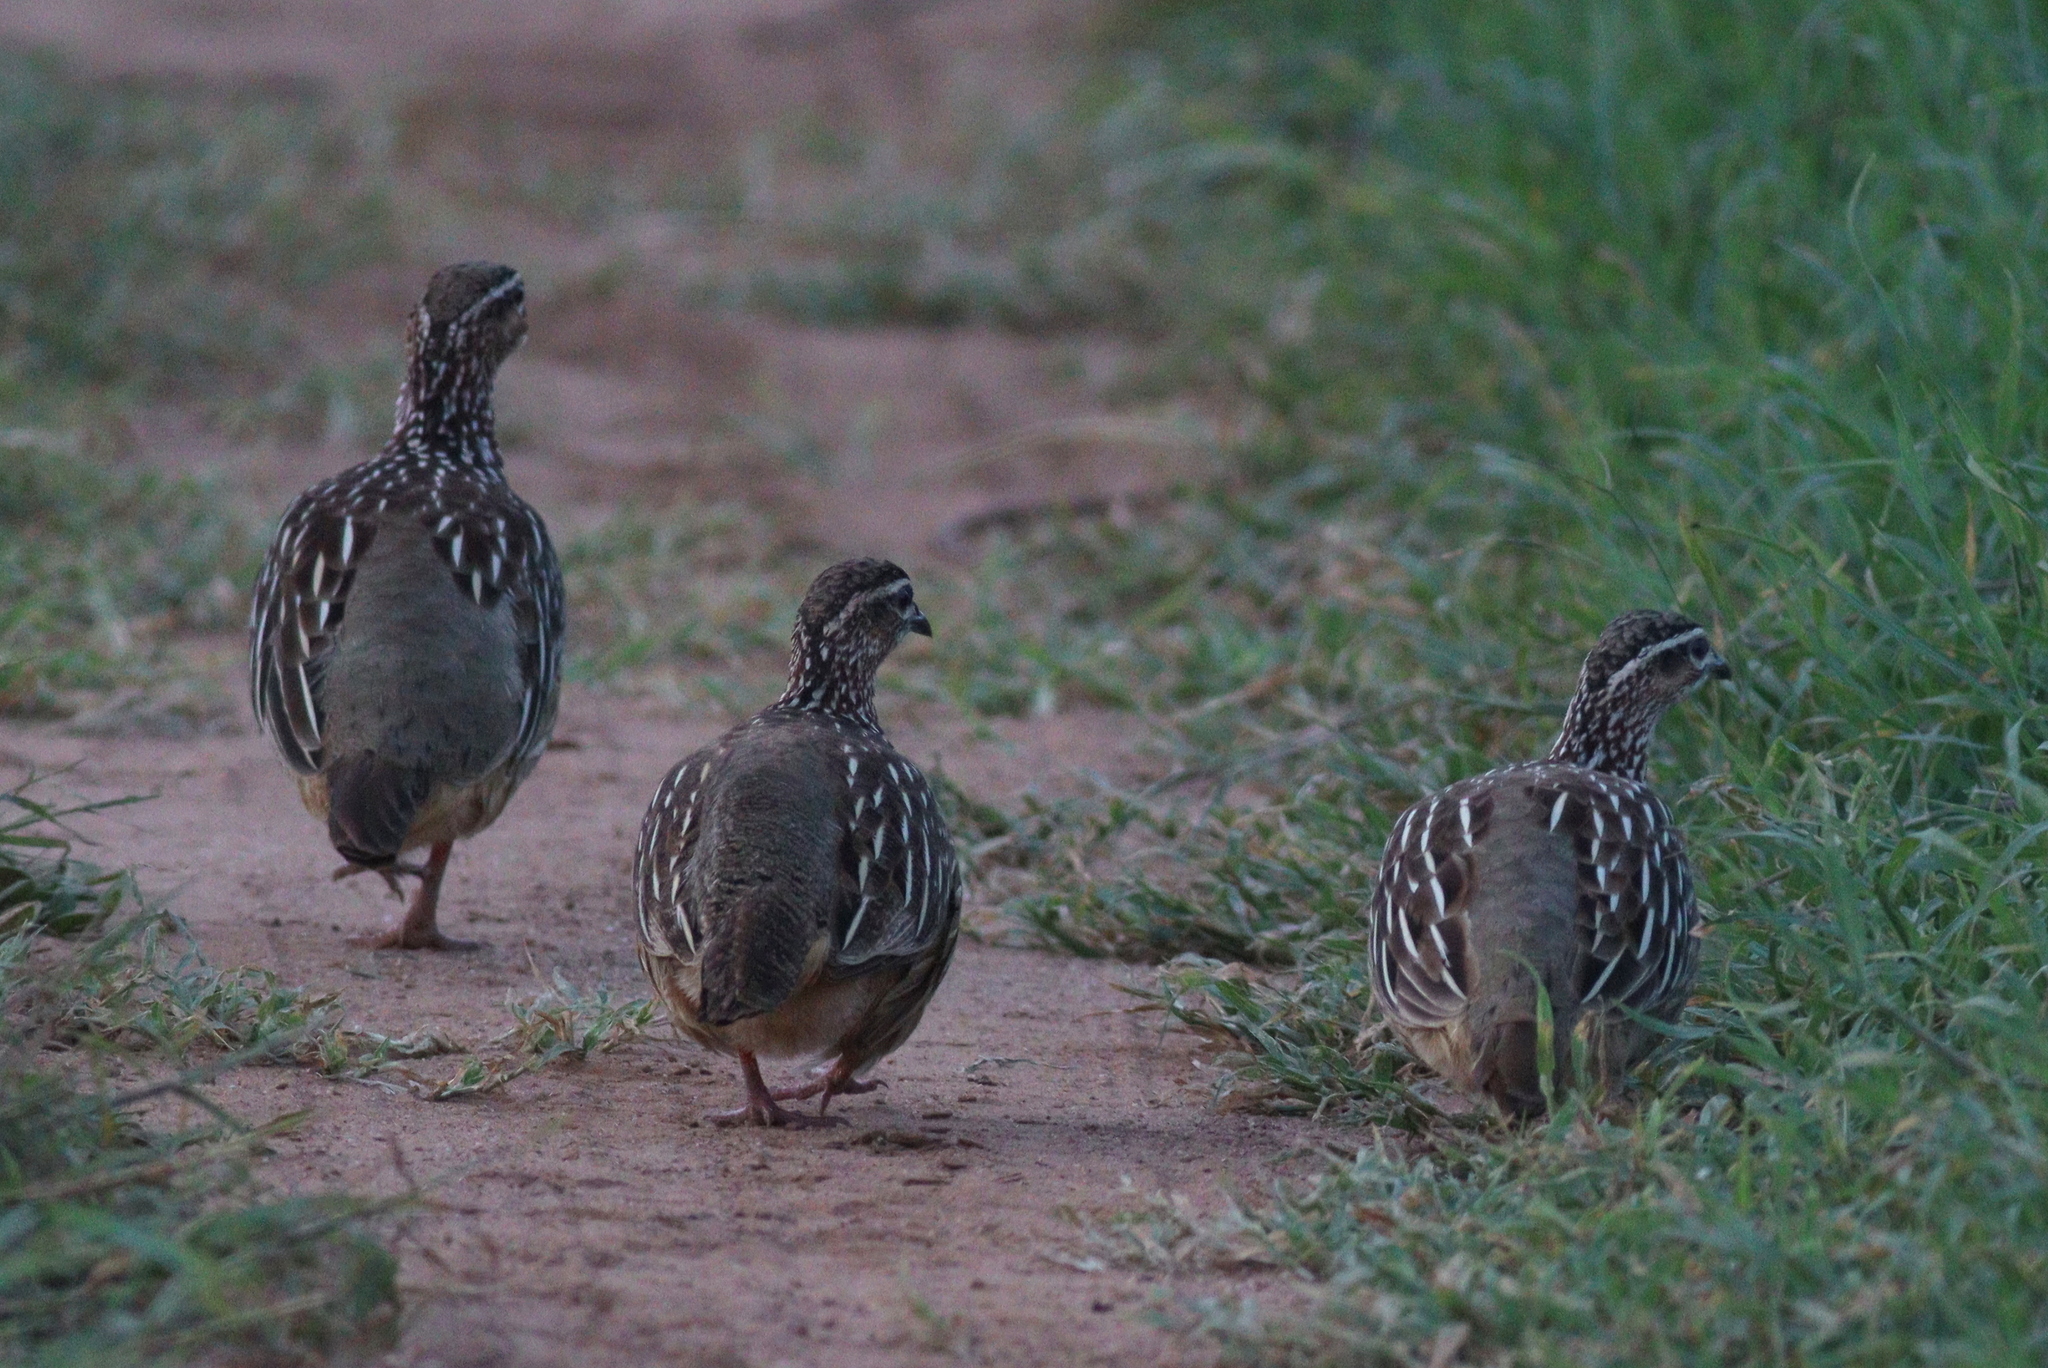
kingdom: Animalia
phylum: Chordata
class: Aves
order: Galliformes
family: Phasianidae
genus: Ortygornis
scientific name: Ortygornis sephaena
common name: Crested francolin
